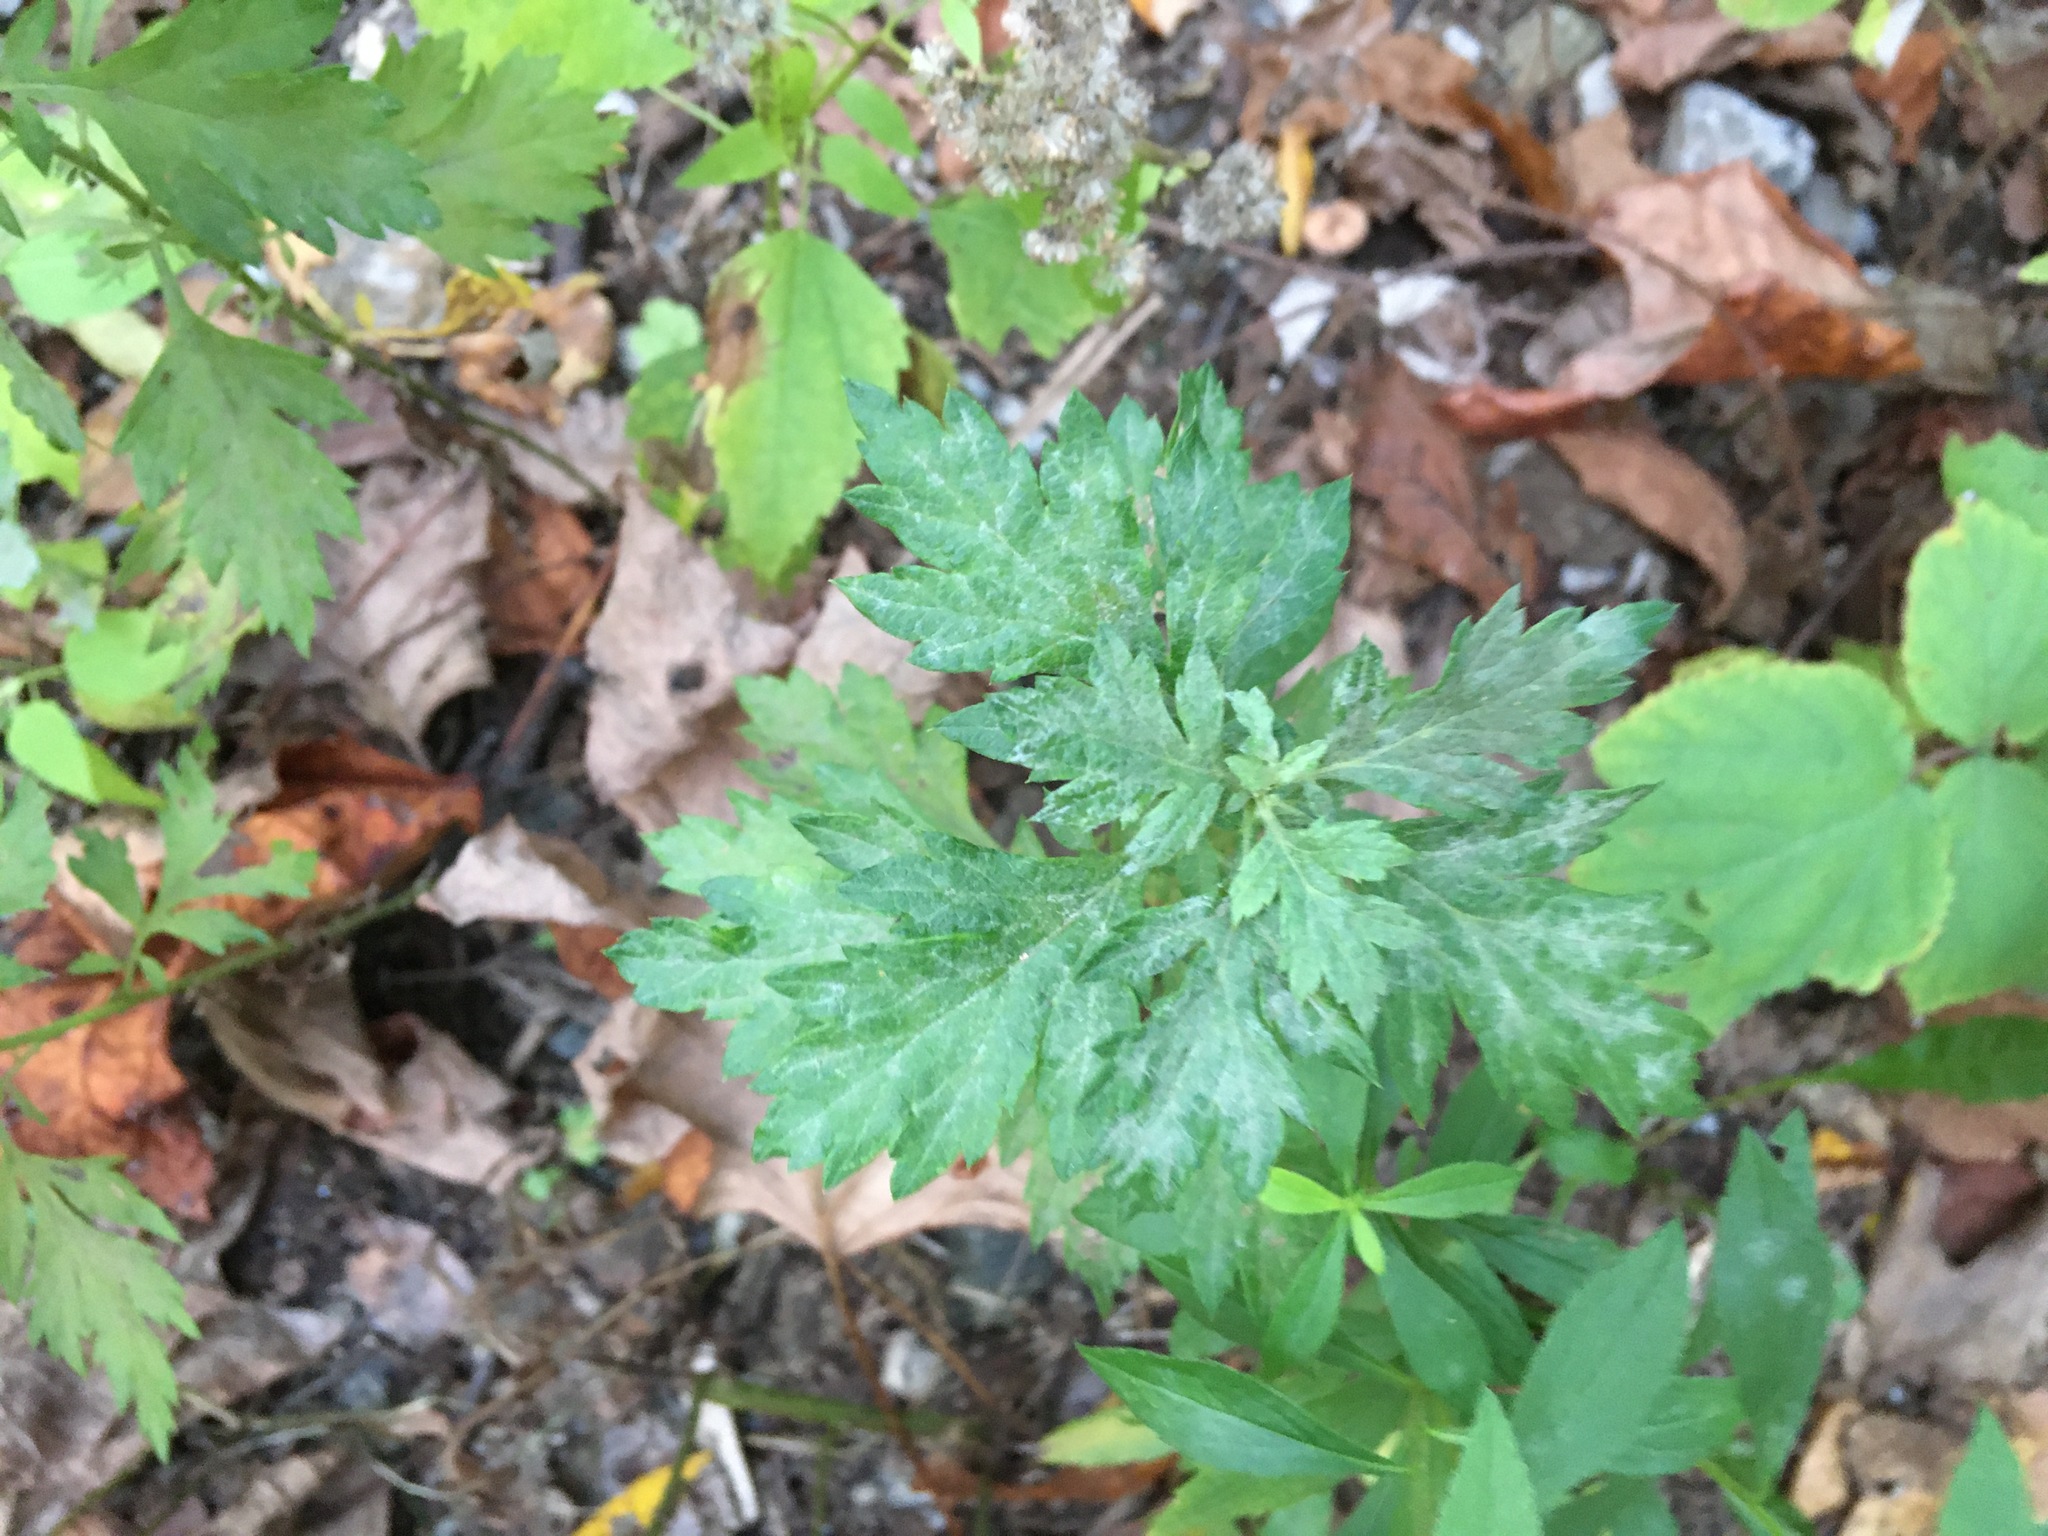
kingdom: Plantae
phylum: Tracheophyta
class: Magnoliopsida
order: Asterales
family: Asteraceae
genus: Artemisia
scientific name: Artemisia vulgaris
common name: Mugwort
